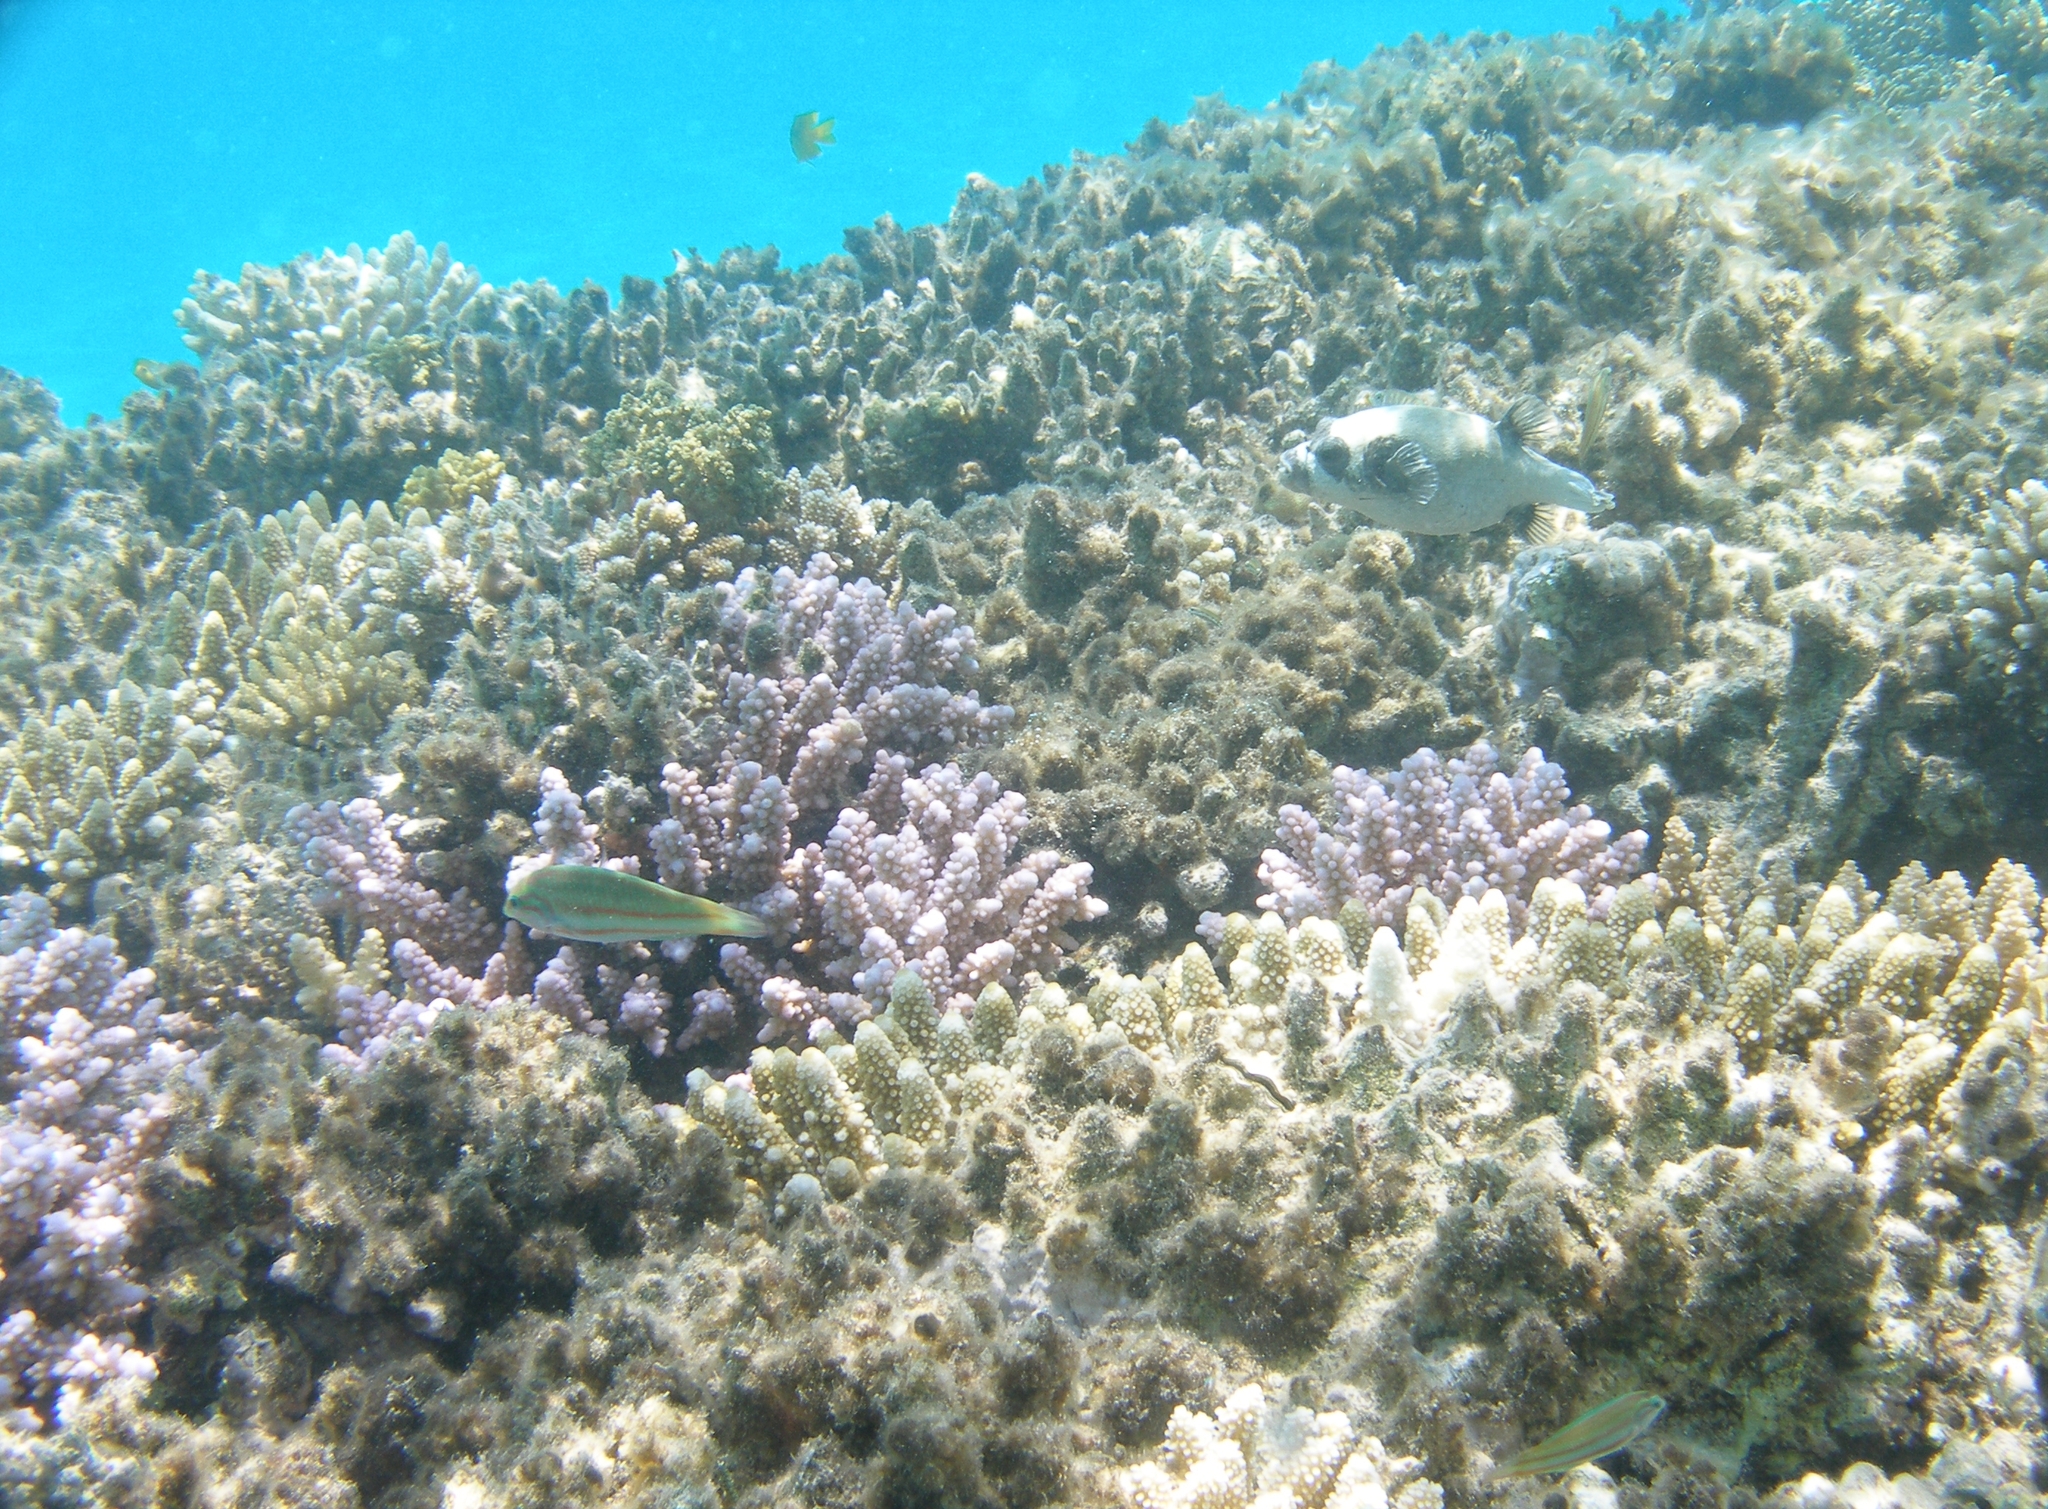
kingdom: Animalia
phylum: Chordata
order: Tetraodontiformes
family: Tetraodontidae
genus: Arothron
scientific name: Arothron diadematus
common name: Masked puffer
